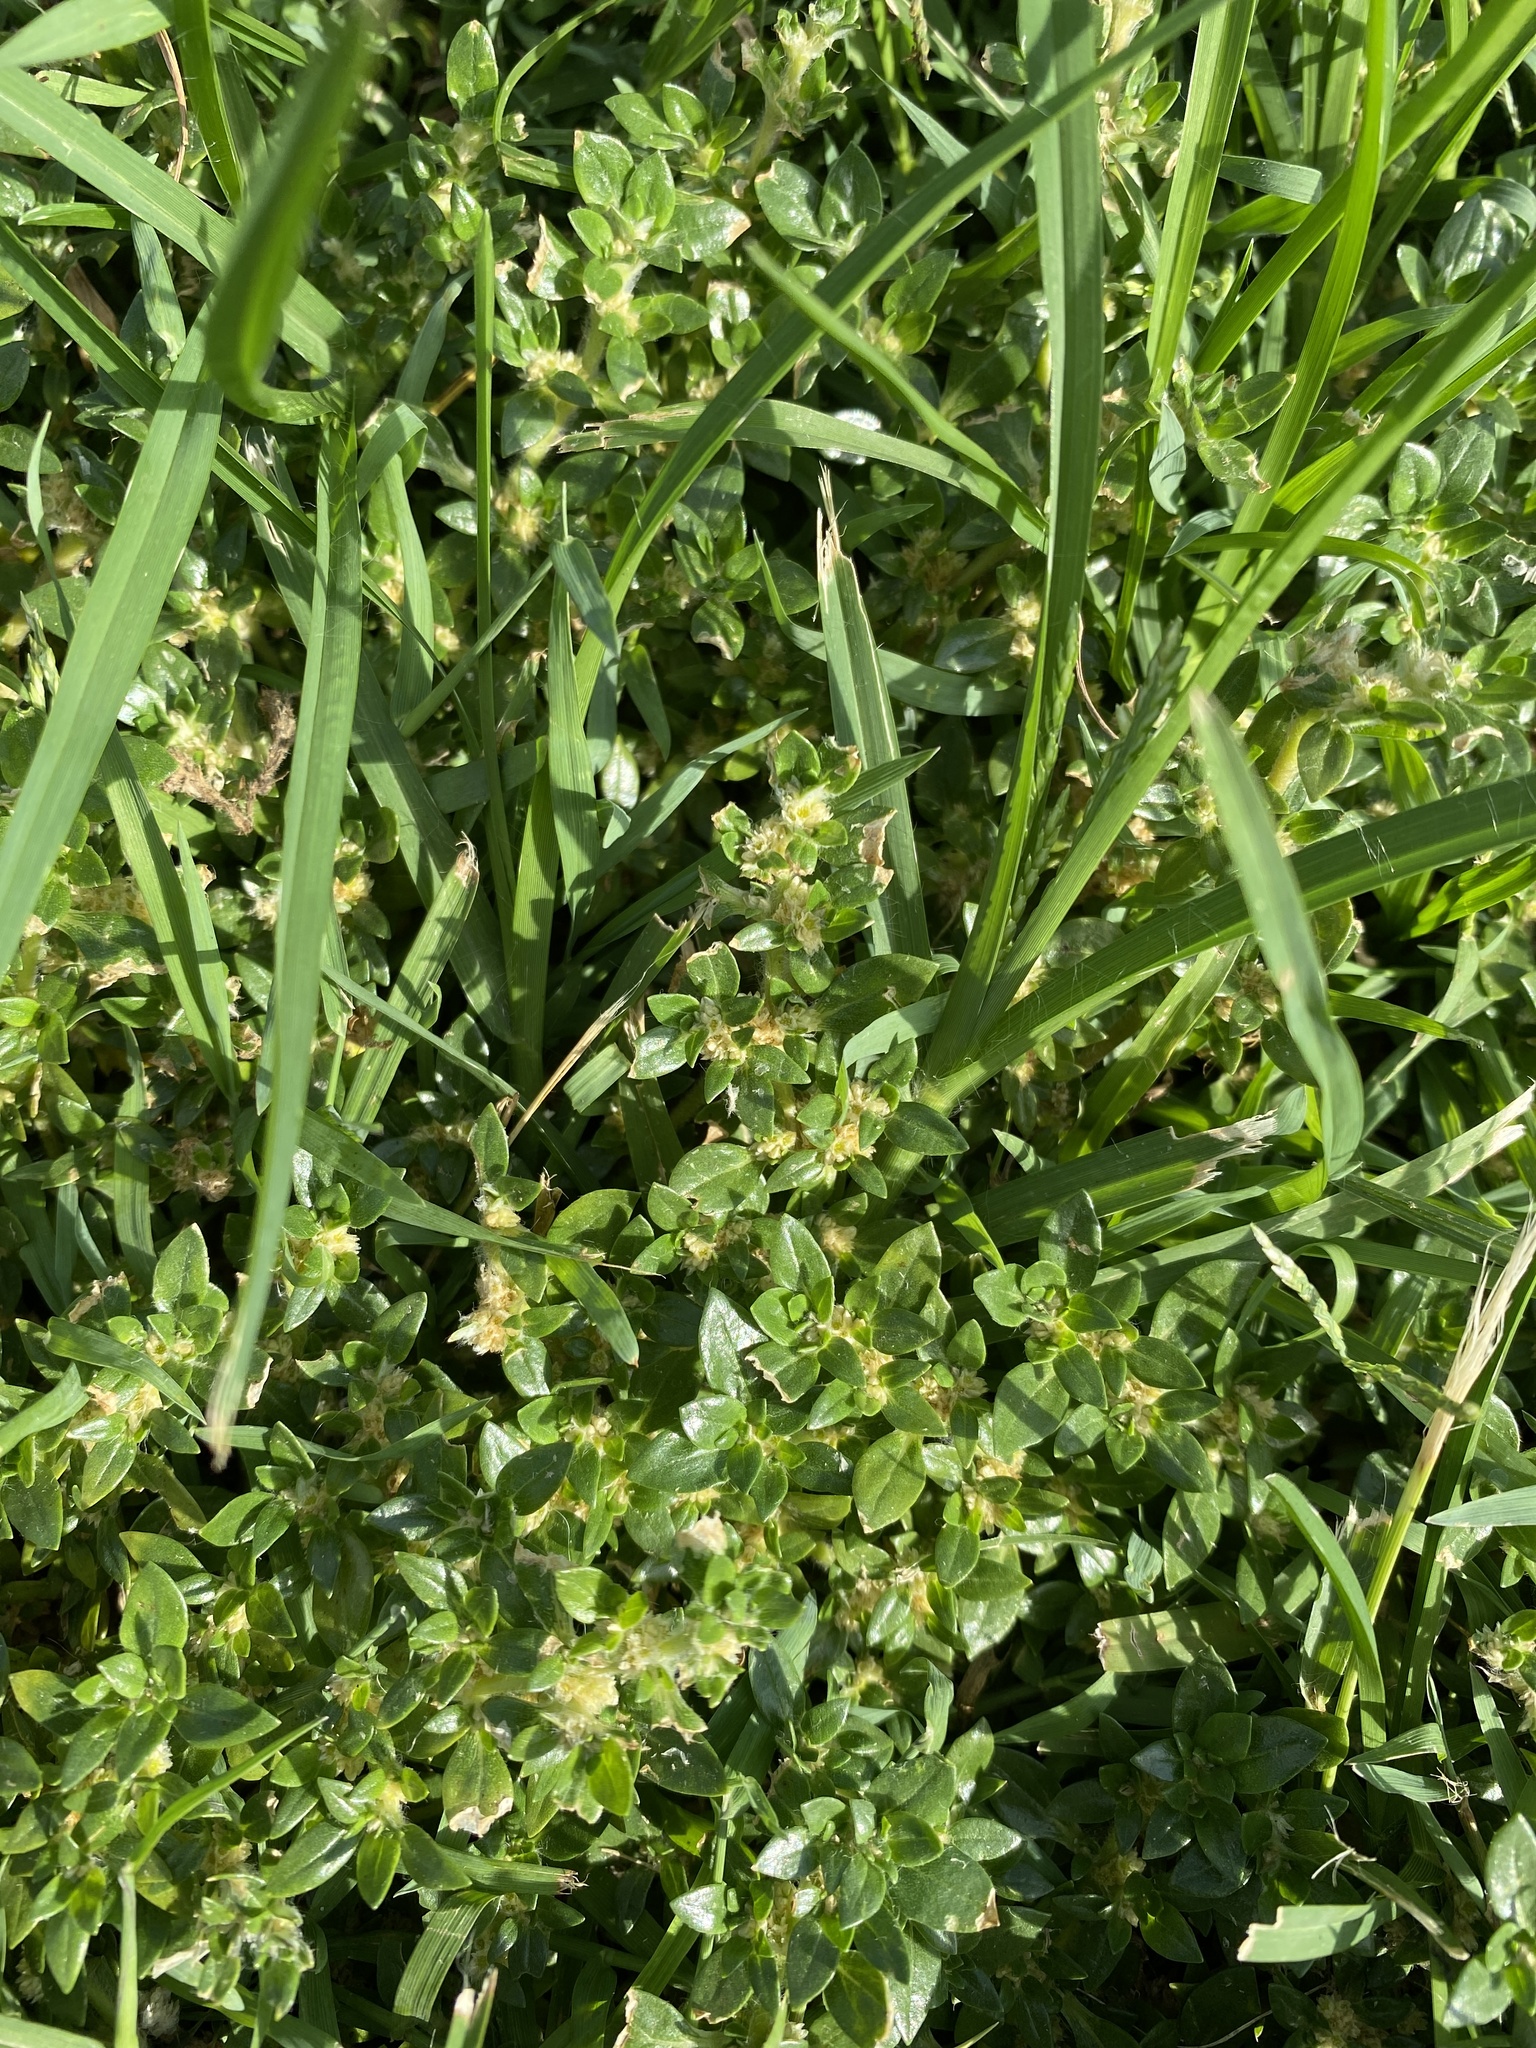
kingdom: Plantae
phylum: Tracheophyta
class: Magnoliopsida
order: Caryophyllales
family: Amaranthaceae
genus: Guilleminea
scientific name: Guilleminea densa
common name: Small matweed
